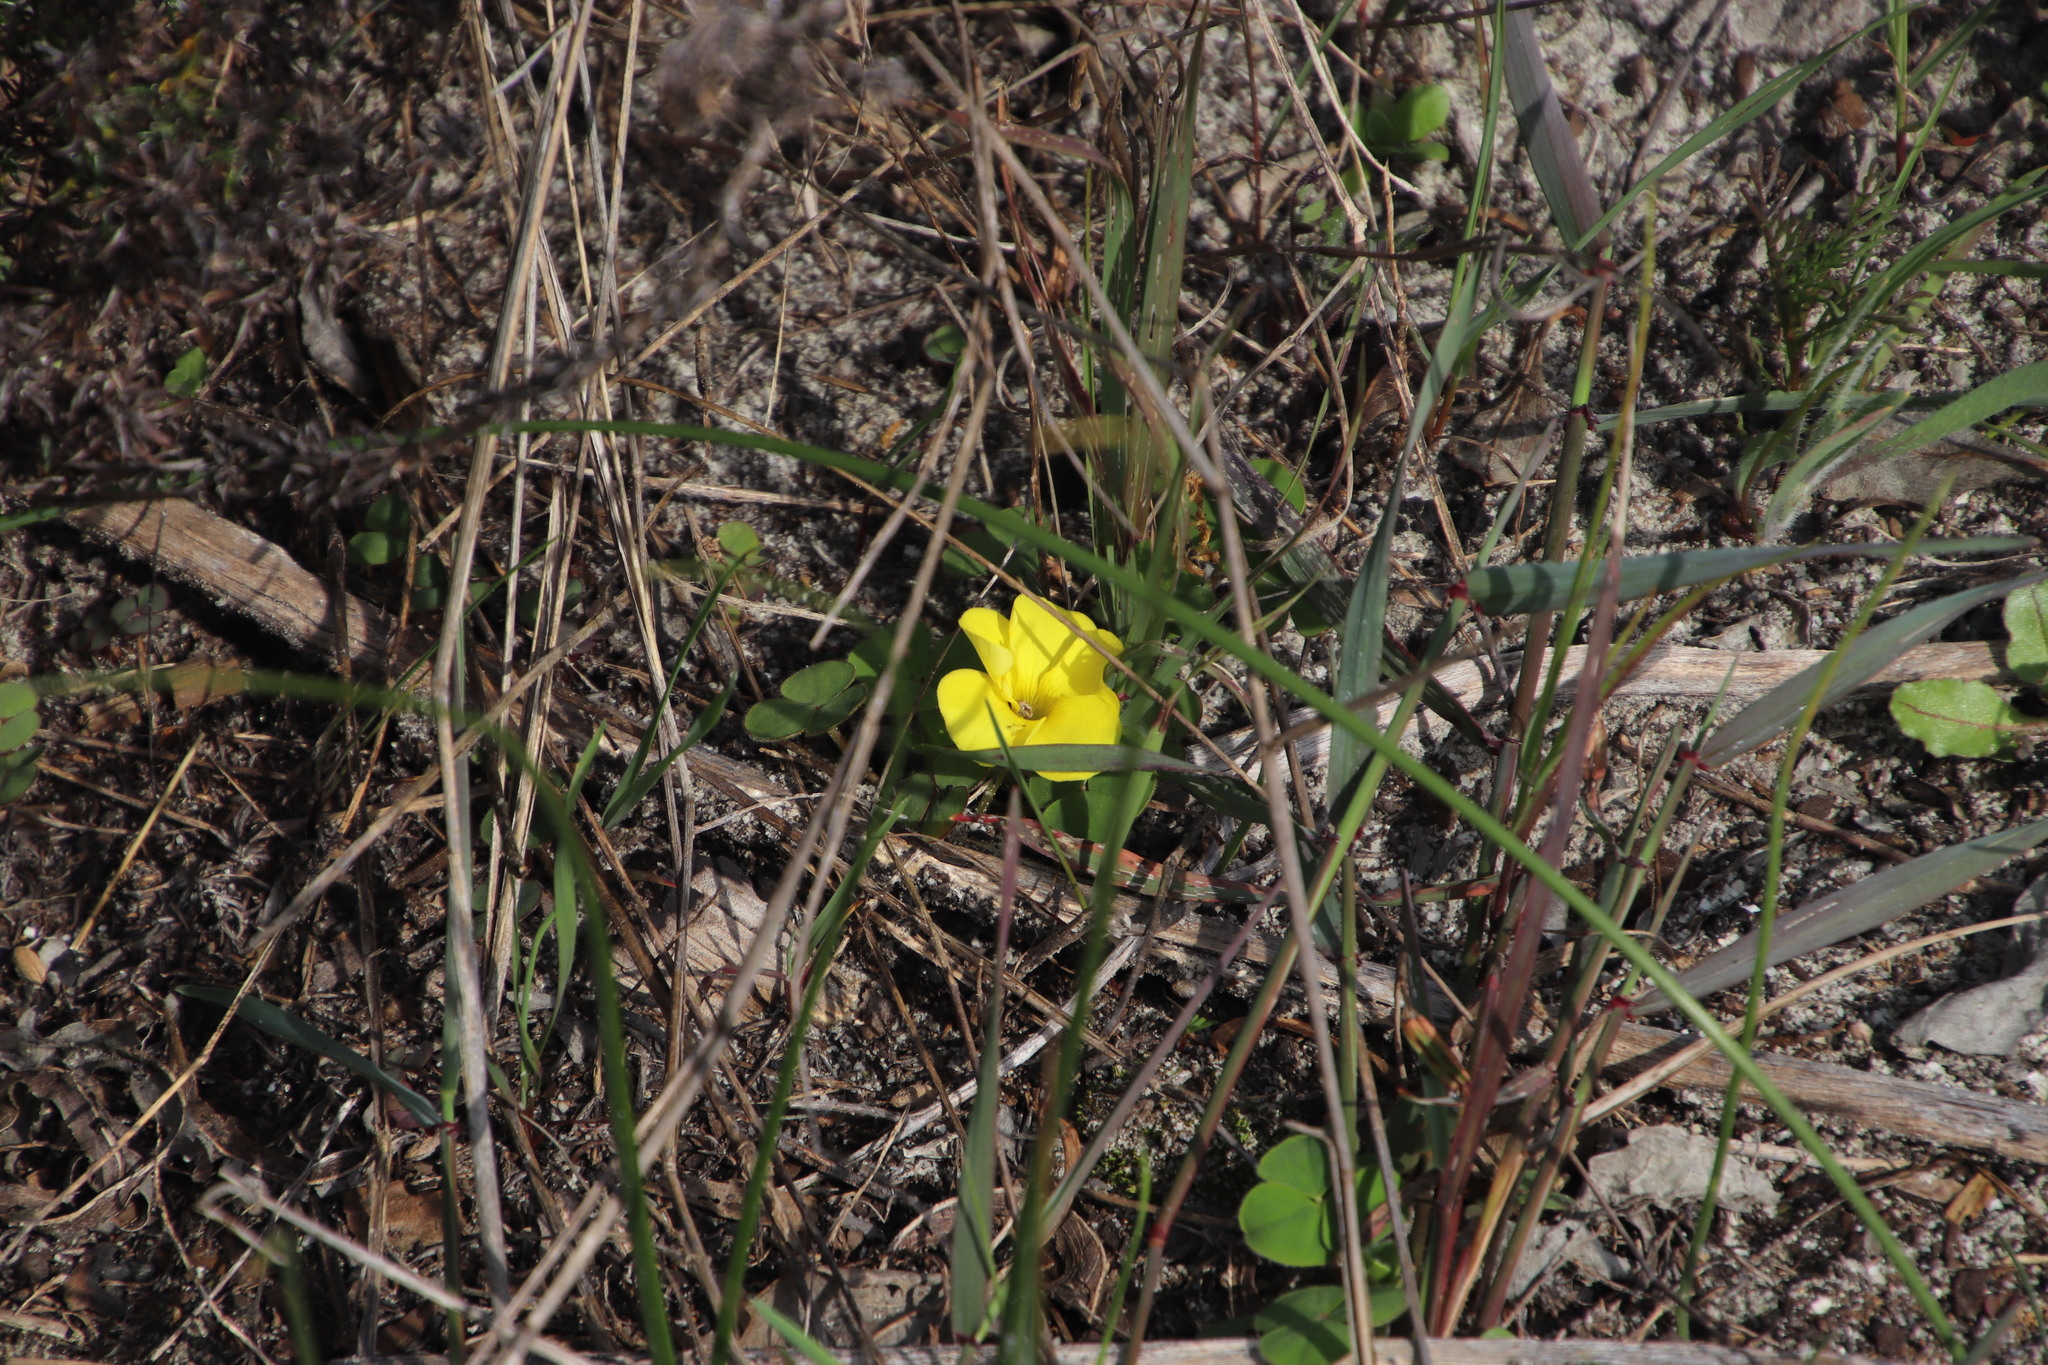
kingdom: Plantae
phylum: Tracheophyta
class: Magnoliopsida
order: Oxalidales
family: Oxalidaceae
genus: Oxalis
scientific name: Oxalis luteola
